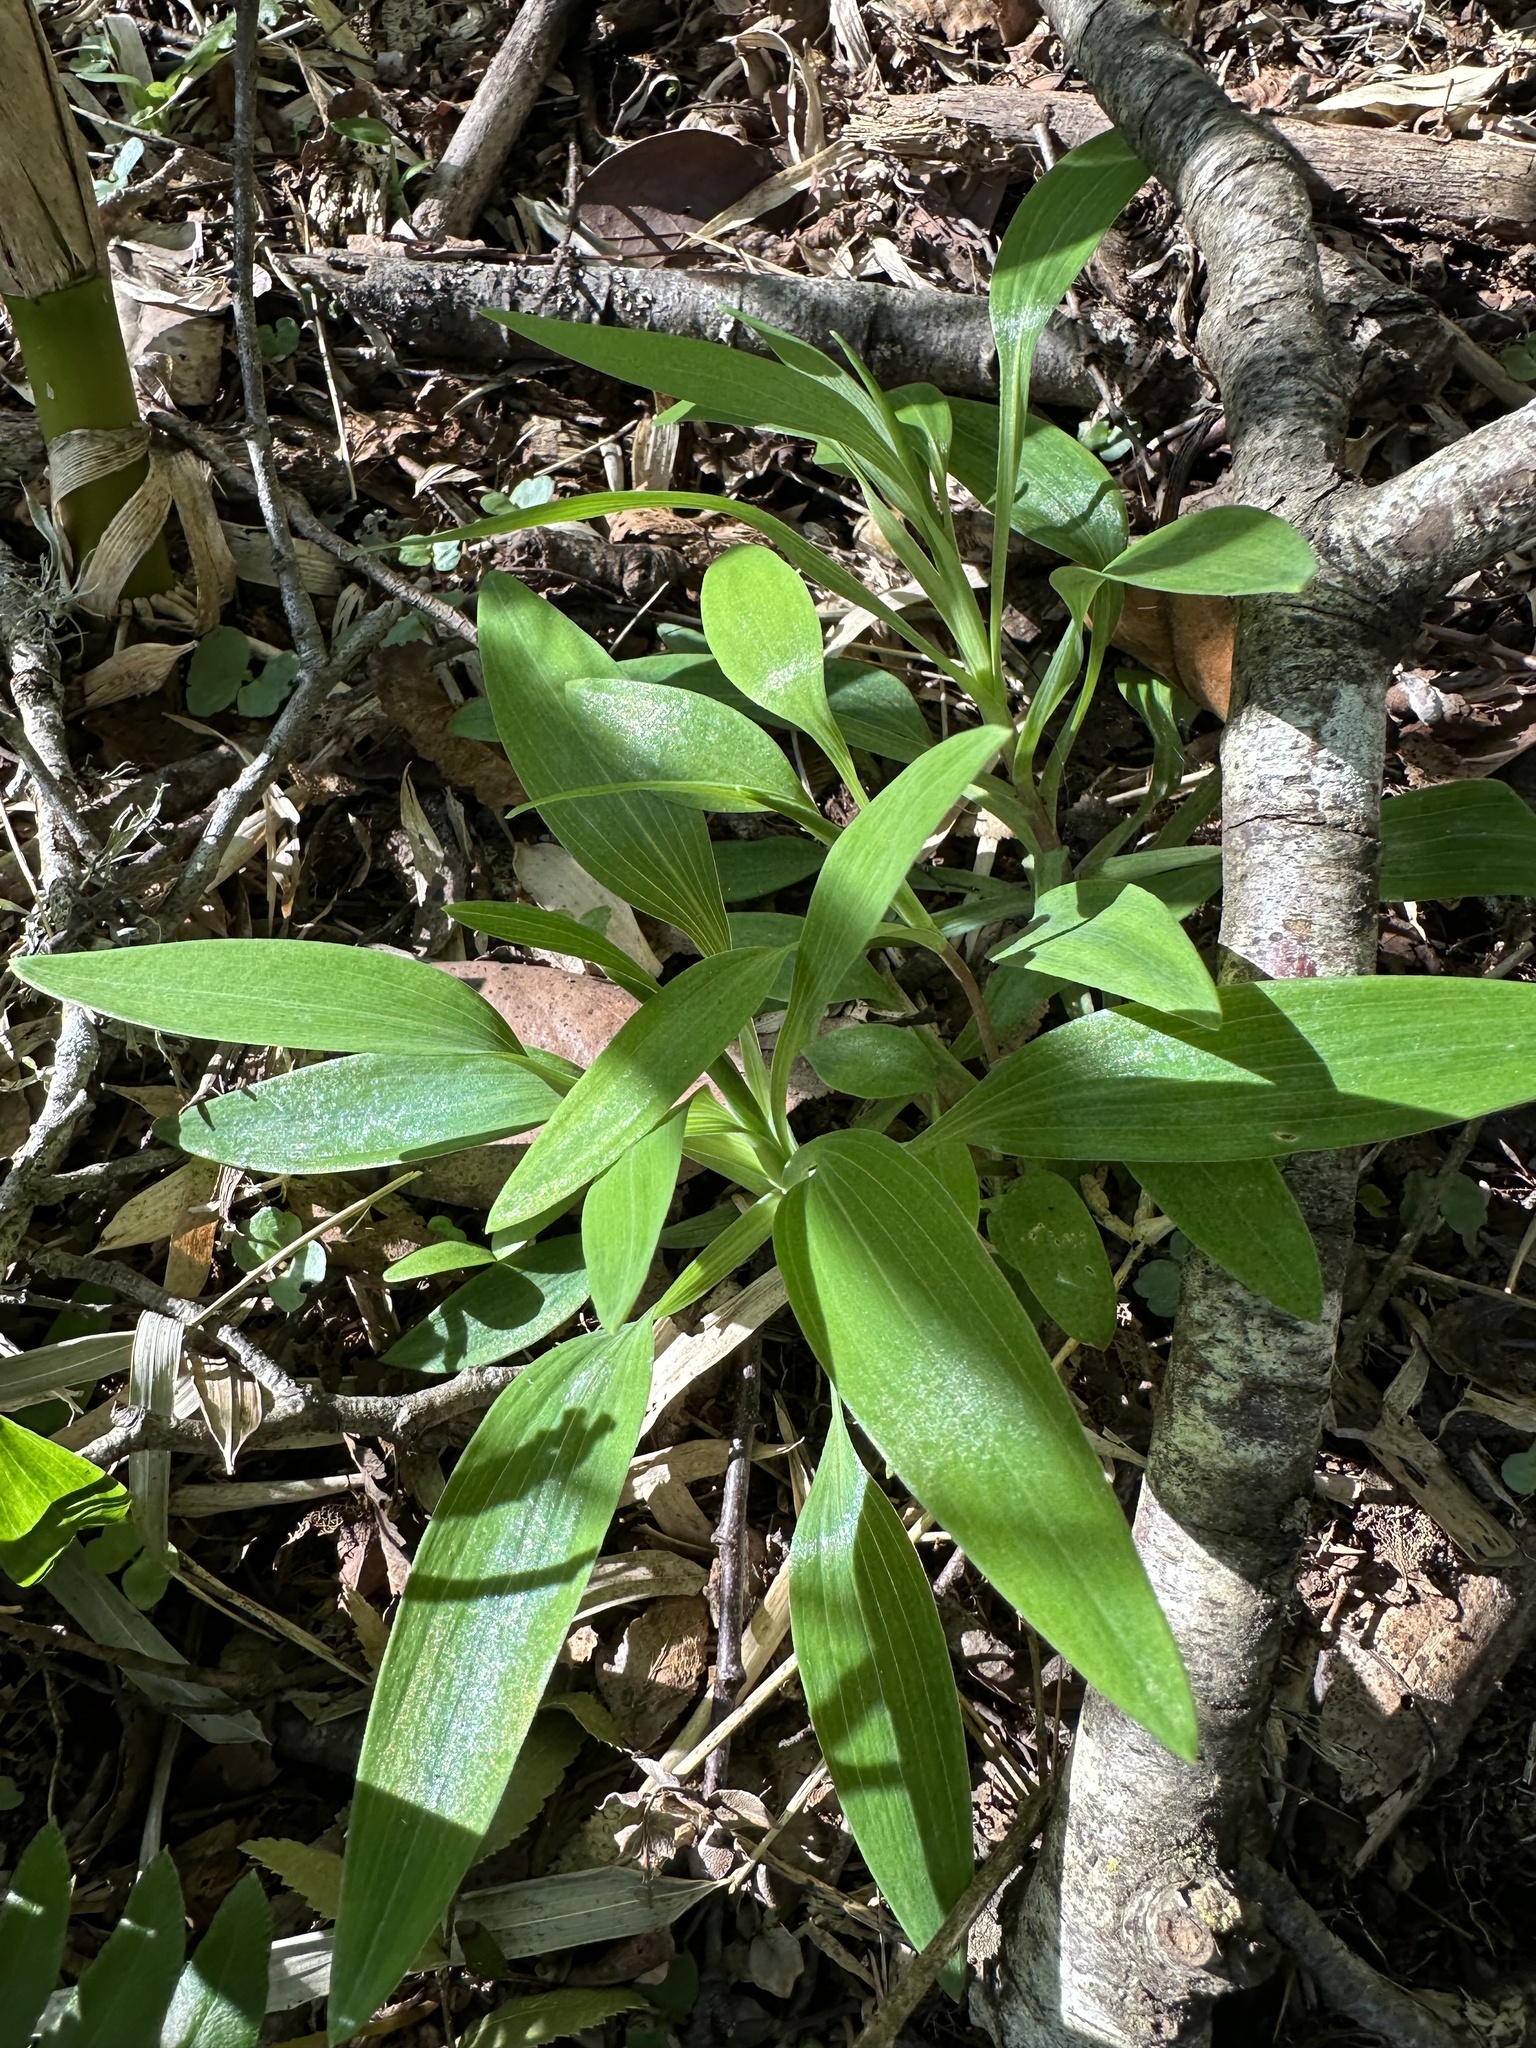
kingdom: Plantae
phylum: Tracheophyta
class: Liliopsida
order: Liliales
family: Alstroemeriaceae
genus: Alstroemeria
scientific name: Alstroemeria aurea
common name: Peruvian lily
